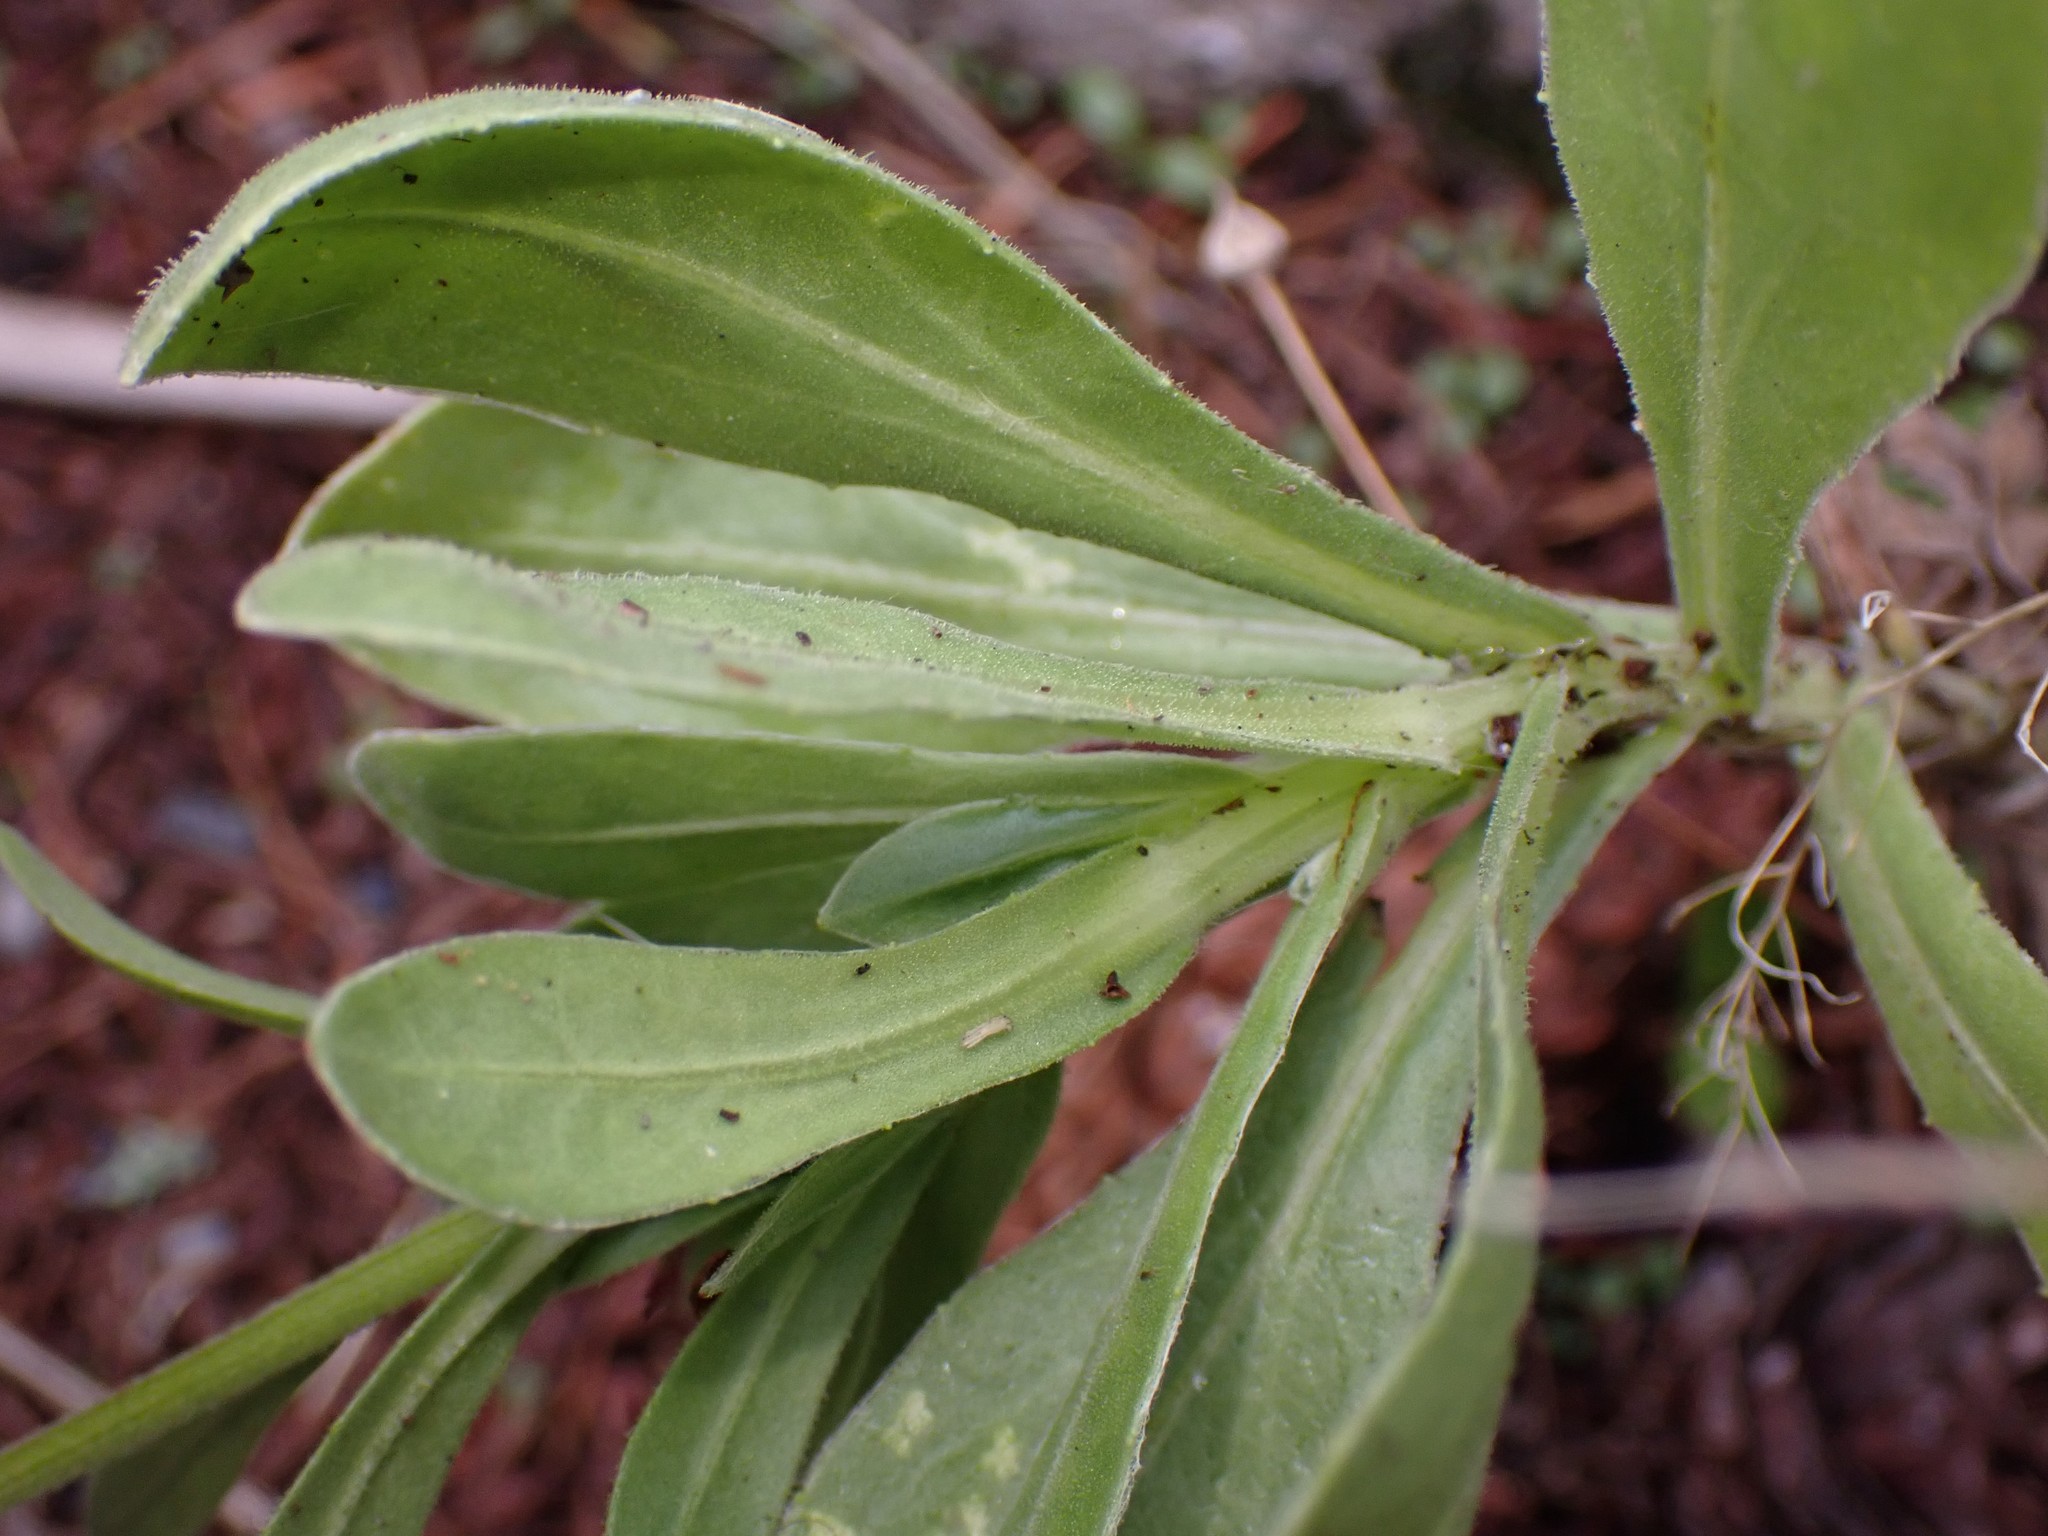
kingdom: Plantae
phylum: Tracheophyta
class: Magnoliopsida
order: Asterales
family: Asteraceae
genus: Calendula
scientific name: Calendula officinalis
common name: Pot marigold
